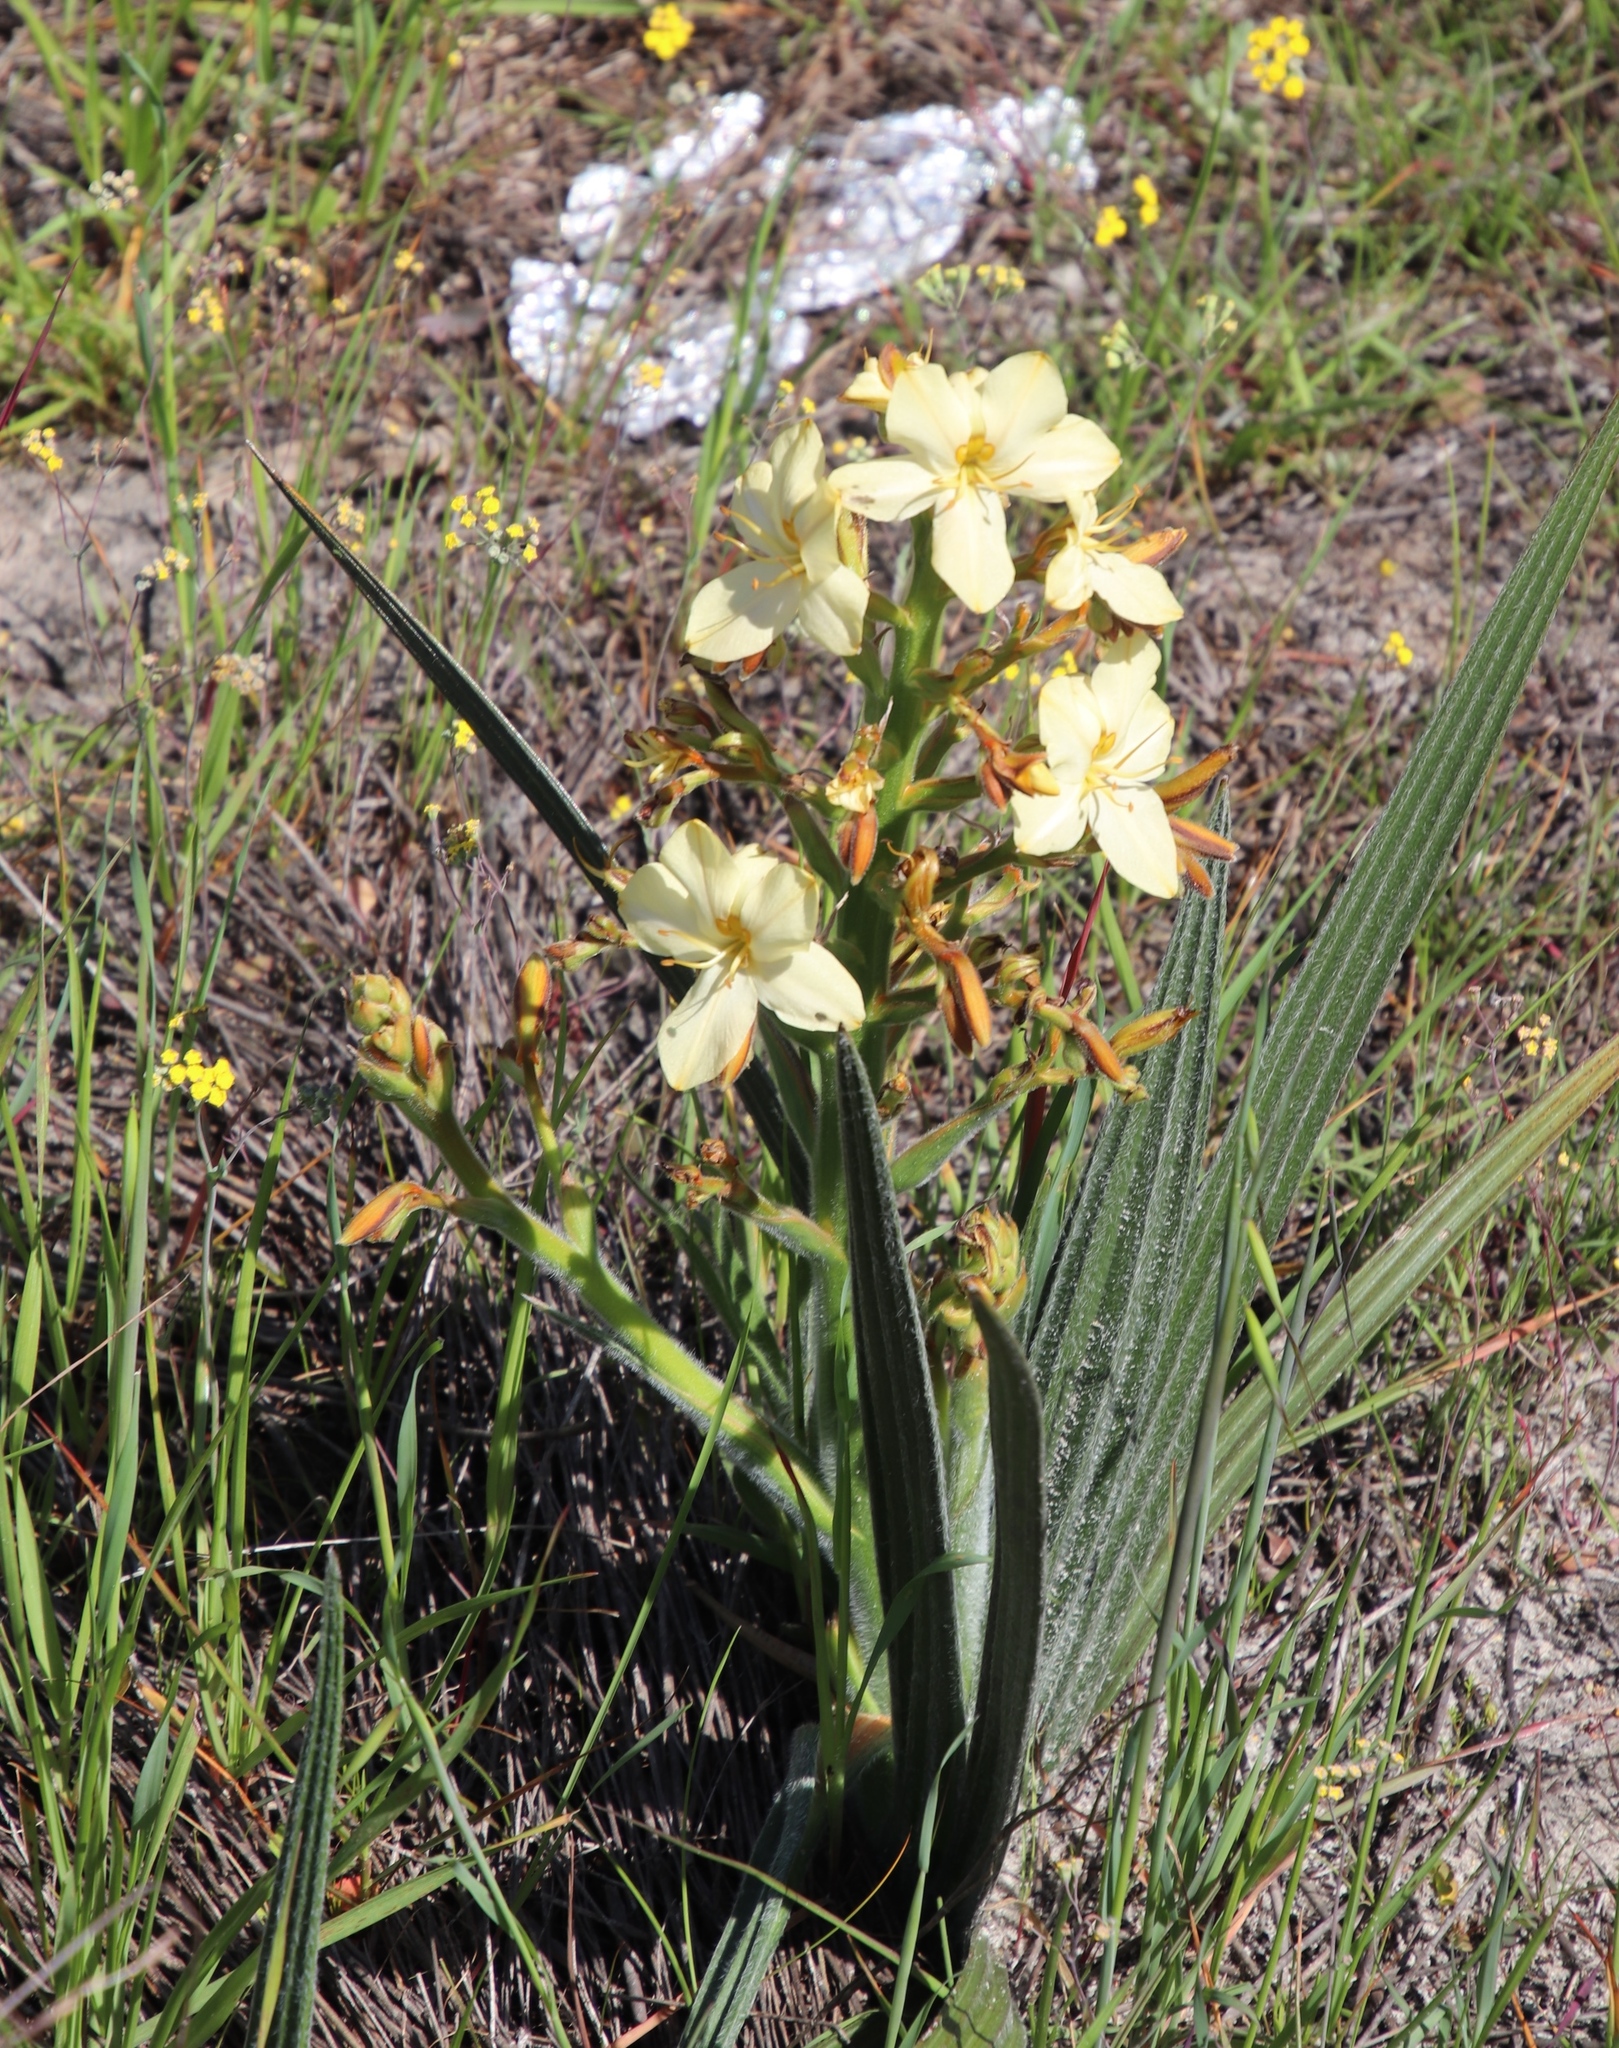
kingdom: Plantae
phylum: Tracheophyta
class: Liliopsida
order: Commelinales
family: Haemodoraceae
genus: Wachendorfia
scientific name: Wachendorfia paniculata
